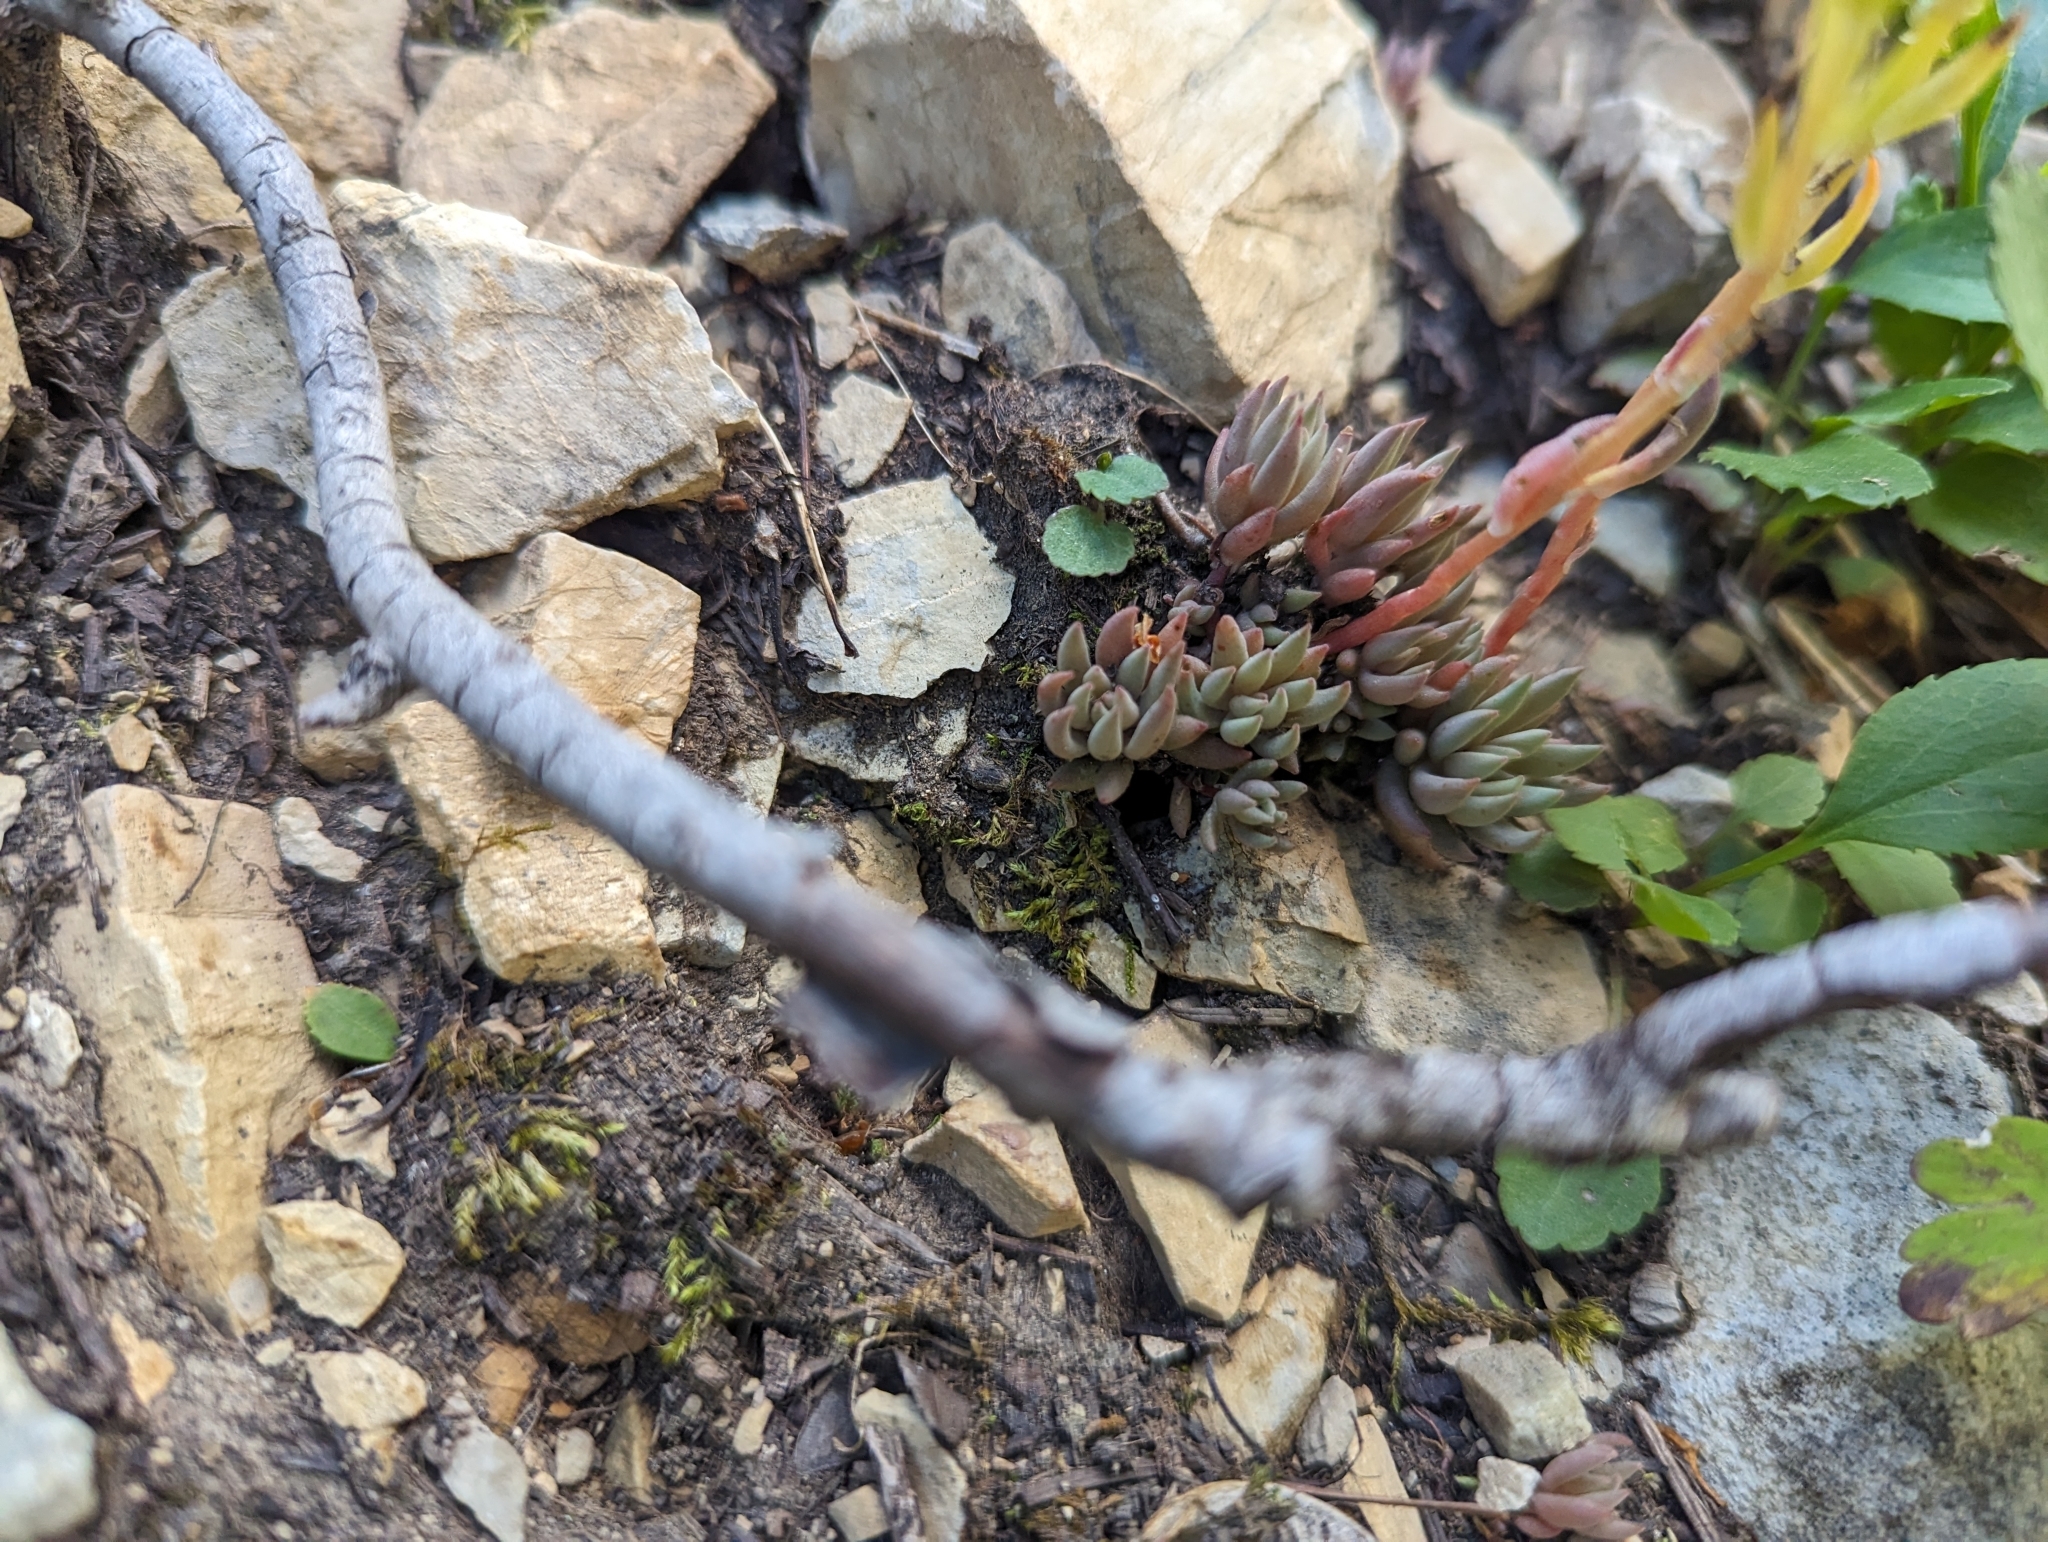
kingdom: Plantae
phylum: Tracheophyta
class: Magnoliopsida
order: Saxifragales
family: Crassulaceae
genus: Sedum
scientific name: Sedum lanceolatum
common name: Common stonecrop
